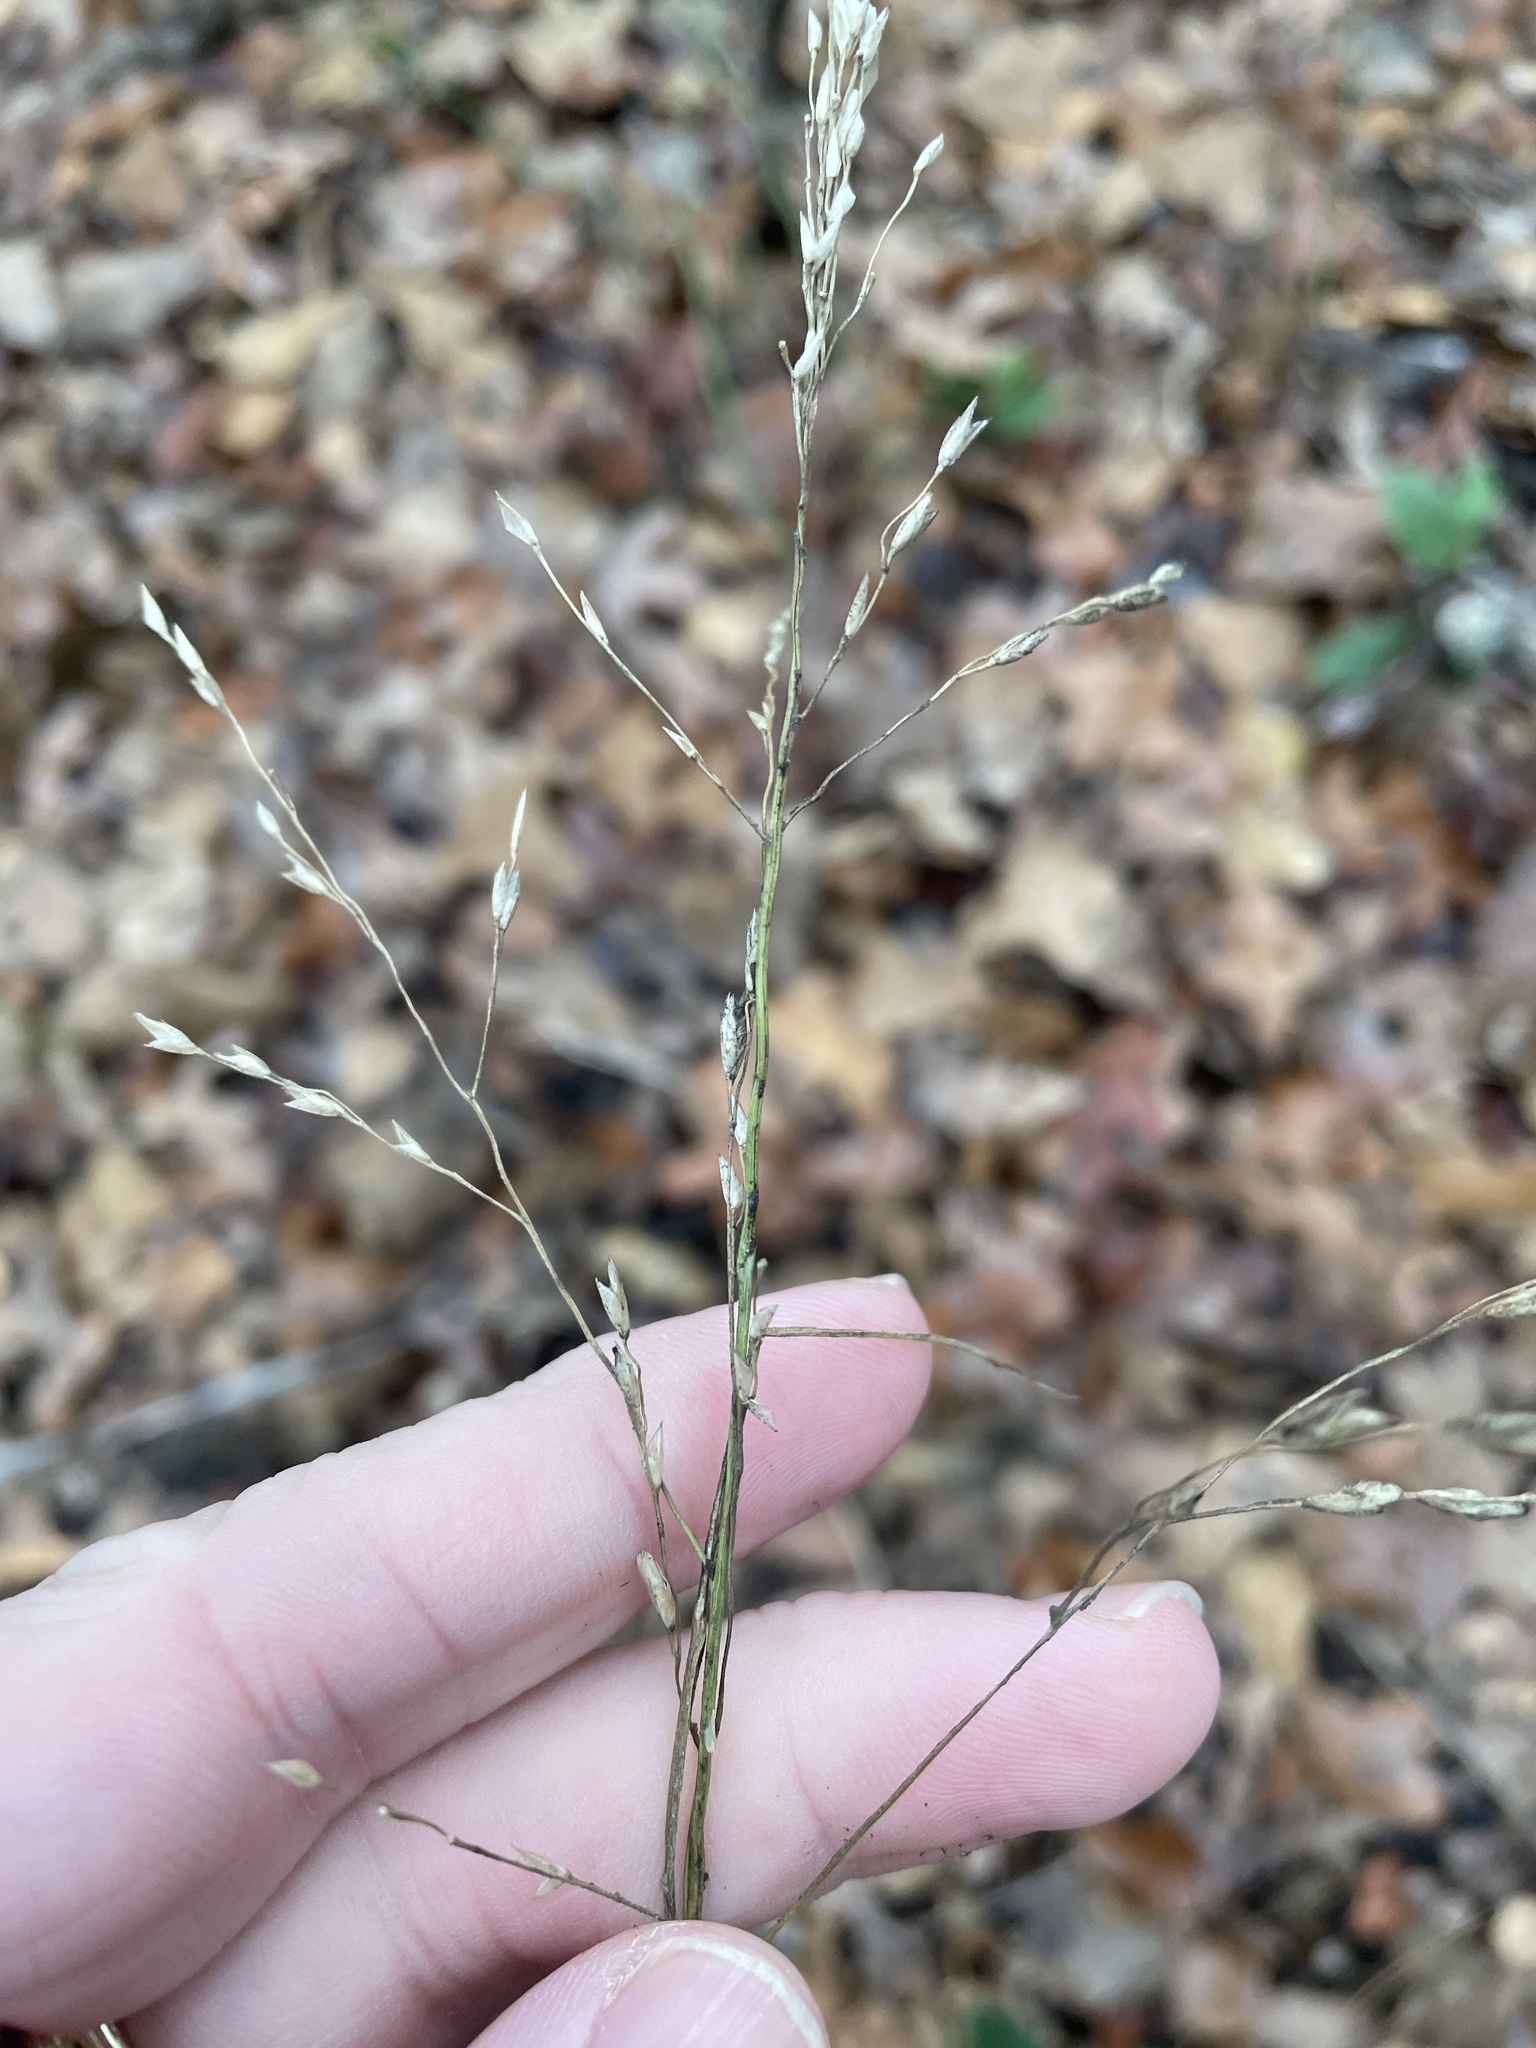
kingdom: Plantae
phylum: Tracheophyta
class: Liliopsida
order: Poales
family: Poaceae
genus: Tridens
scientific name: Tridens flavus
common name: Purpletop
